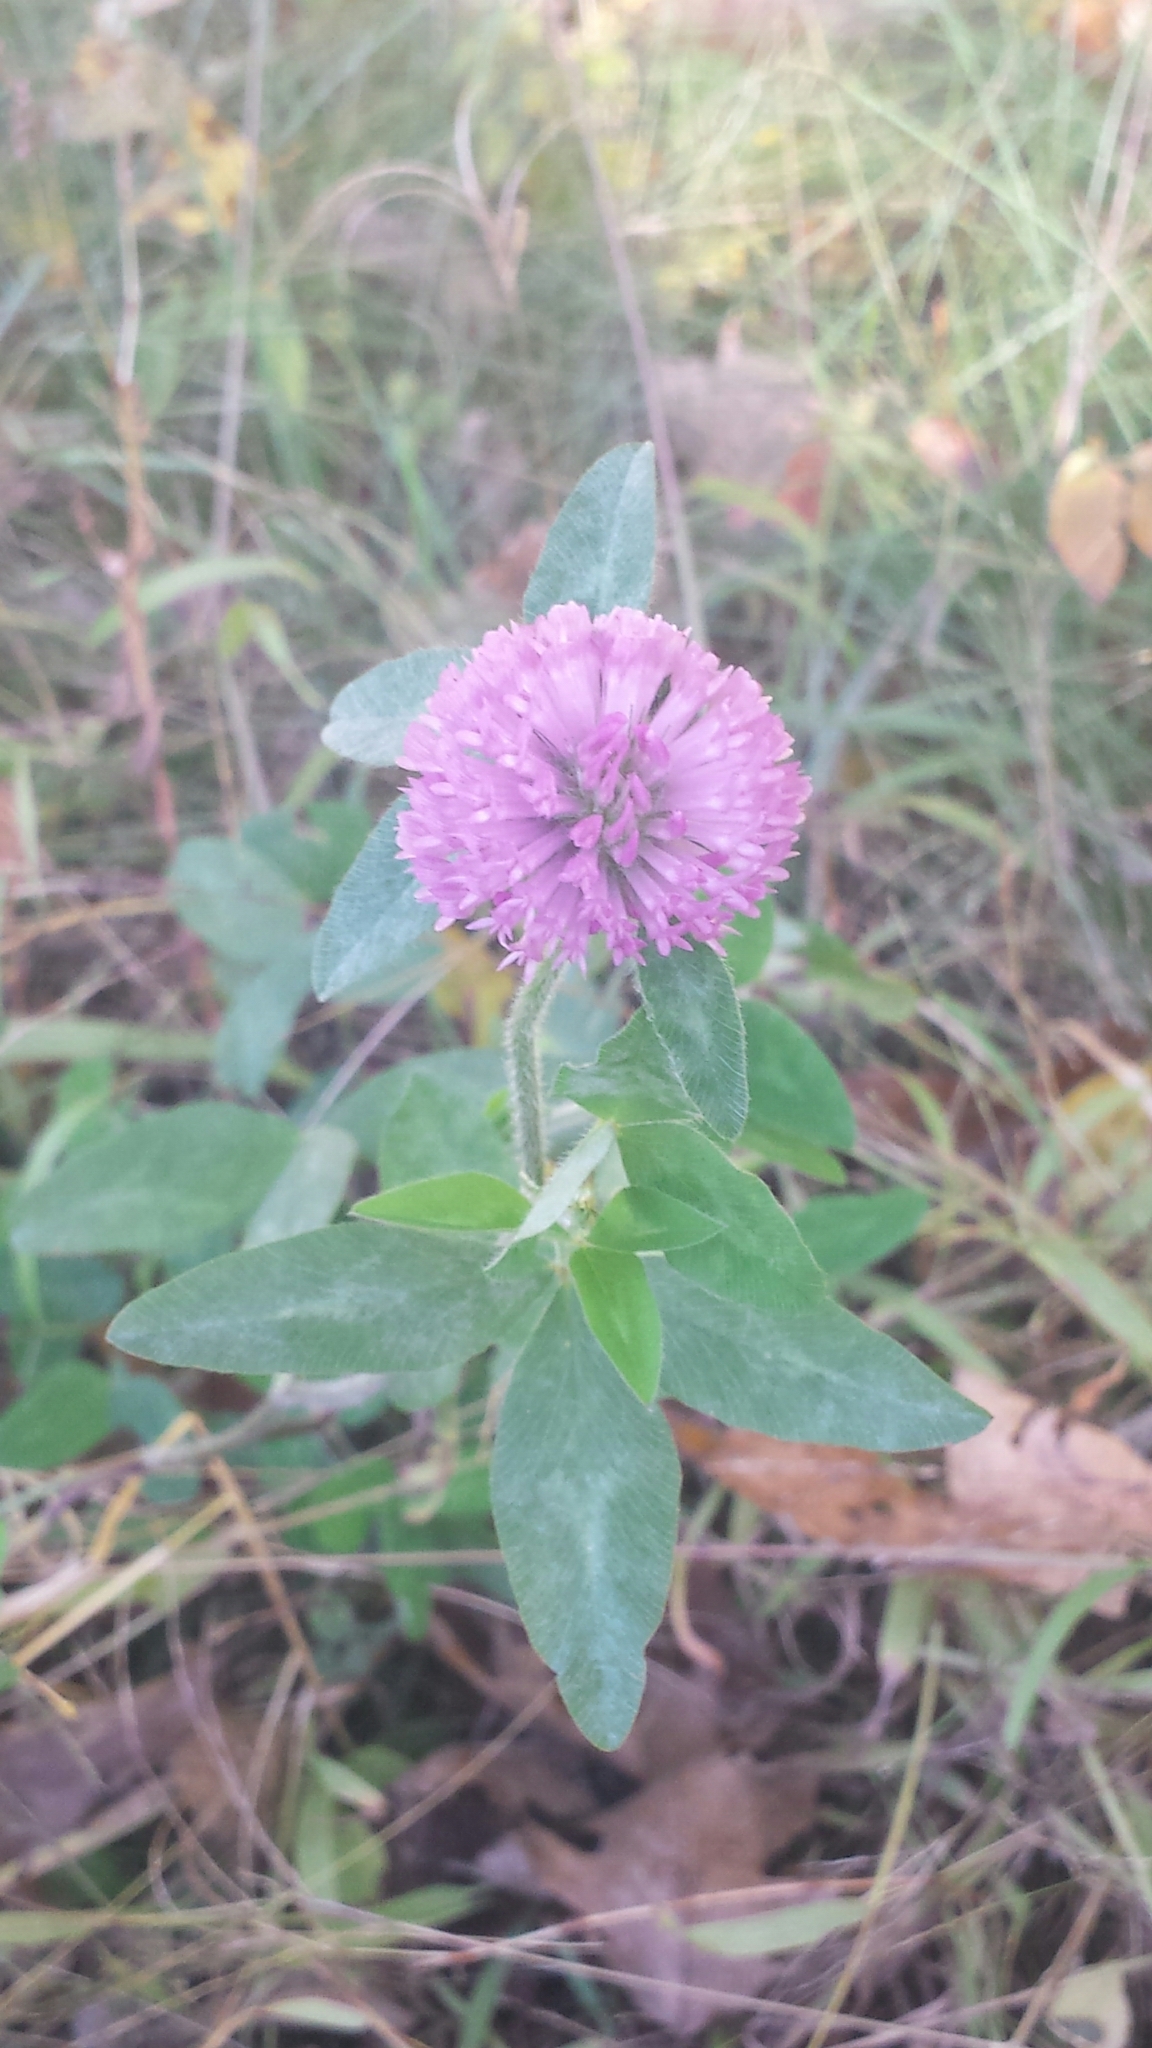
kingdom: Plantae
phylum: Tracheophyta
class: Magnoliopsida
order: Fabales
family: Fabaceae
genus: Trifolium
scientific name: Trifolium pratense
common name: Red clover
